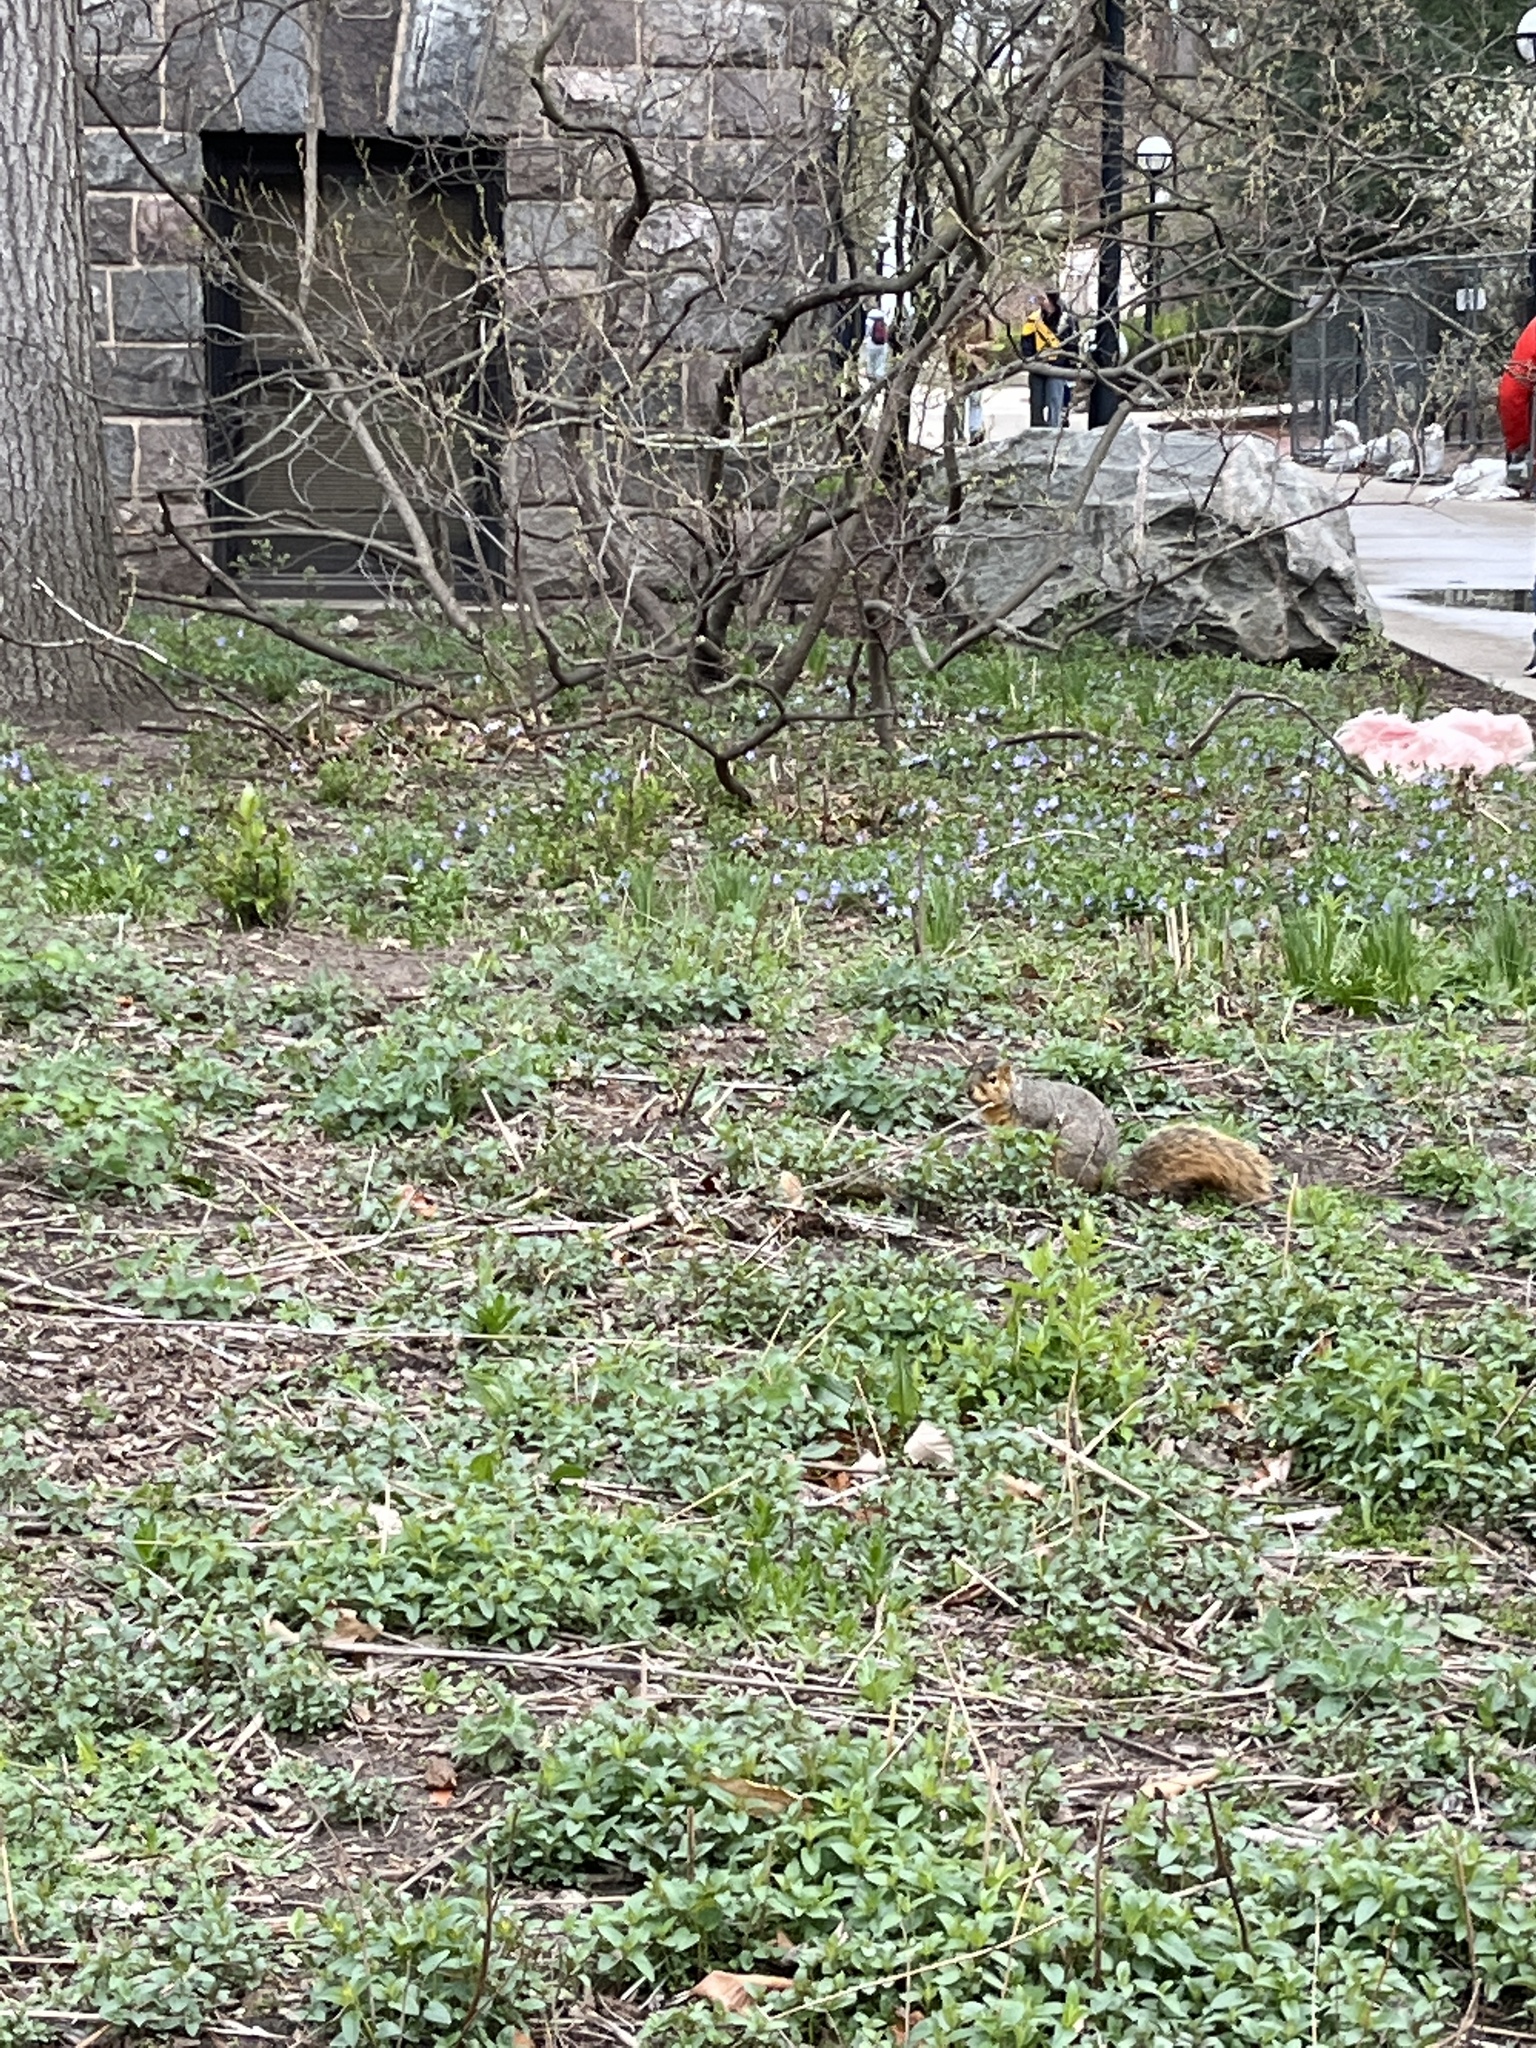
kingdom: Animalia
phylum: Chordata
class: Mammalia
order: Rodentia
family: Sciuridae
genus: Sciurus
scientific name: Sciurus niger
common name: Fox squirrel
